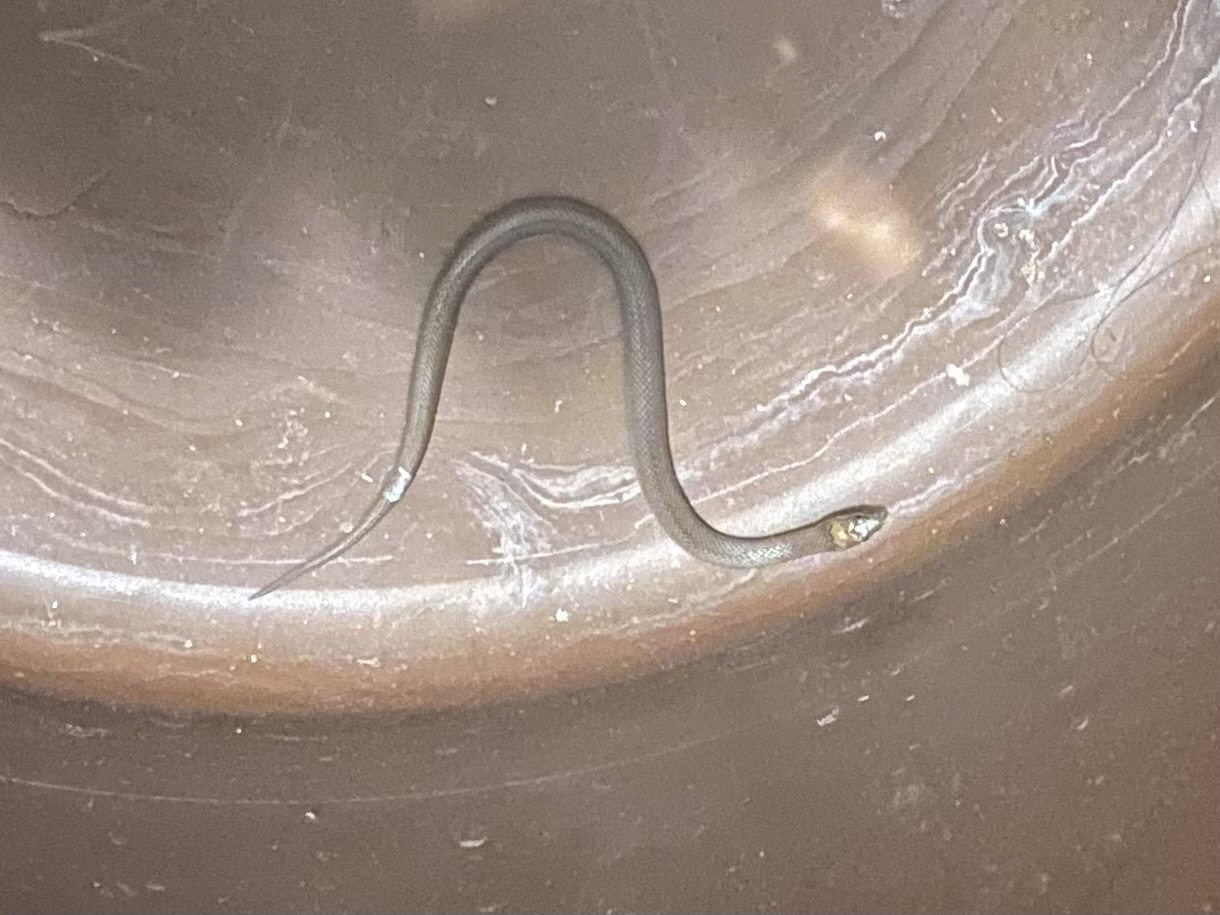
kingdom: Animalia
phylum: Chordata
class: Squamata
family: Colubridae
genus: Haldea
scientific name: Haldea striatula
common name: Rough earth snake
